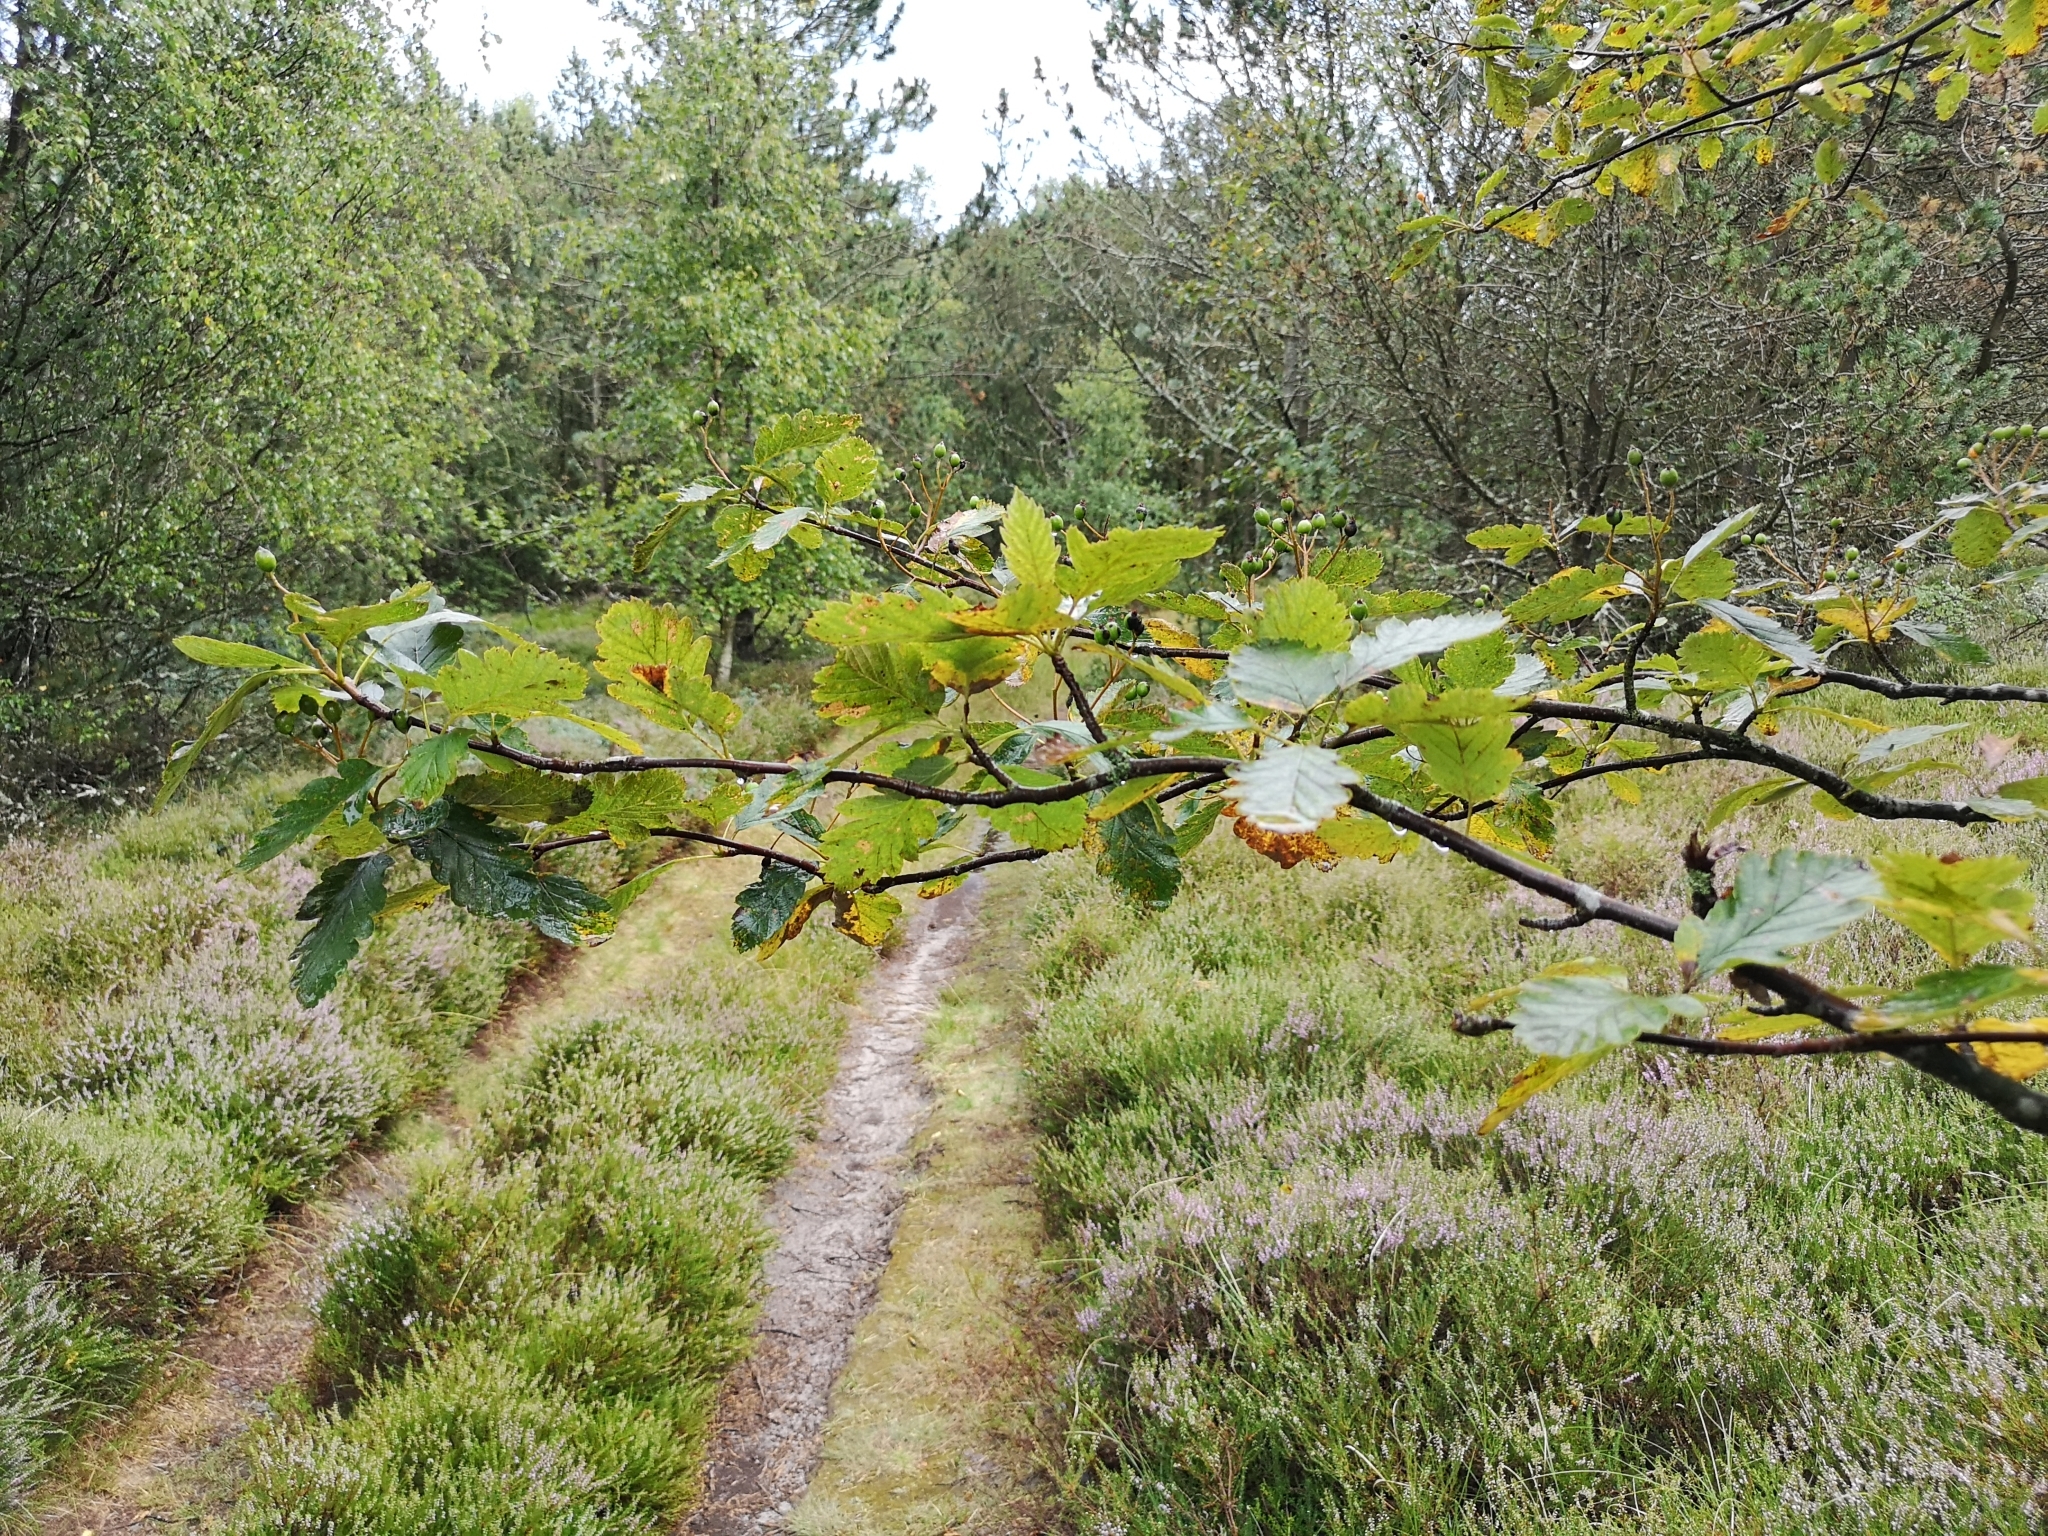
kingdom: Plantae
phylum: Tracheophyta
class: Magnoliopsida
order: Rosales
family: Rosaceae
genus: Scandosorbus
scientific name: Scandosorbus intermedia
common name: Swedish whitebeam
